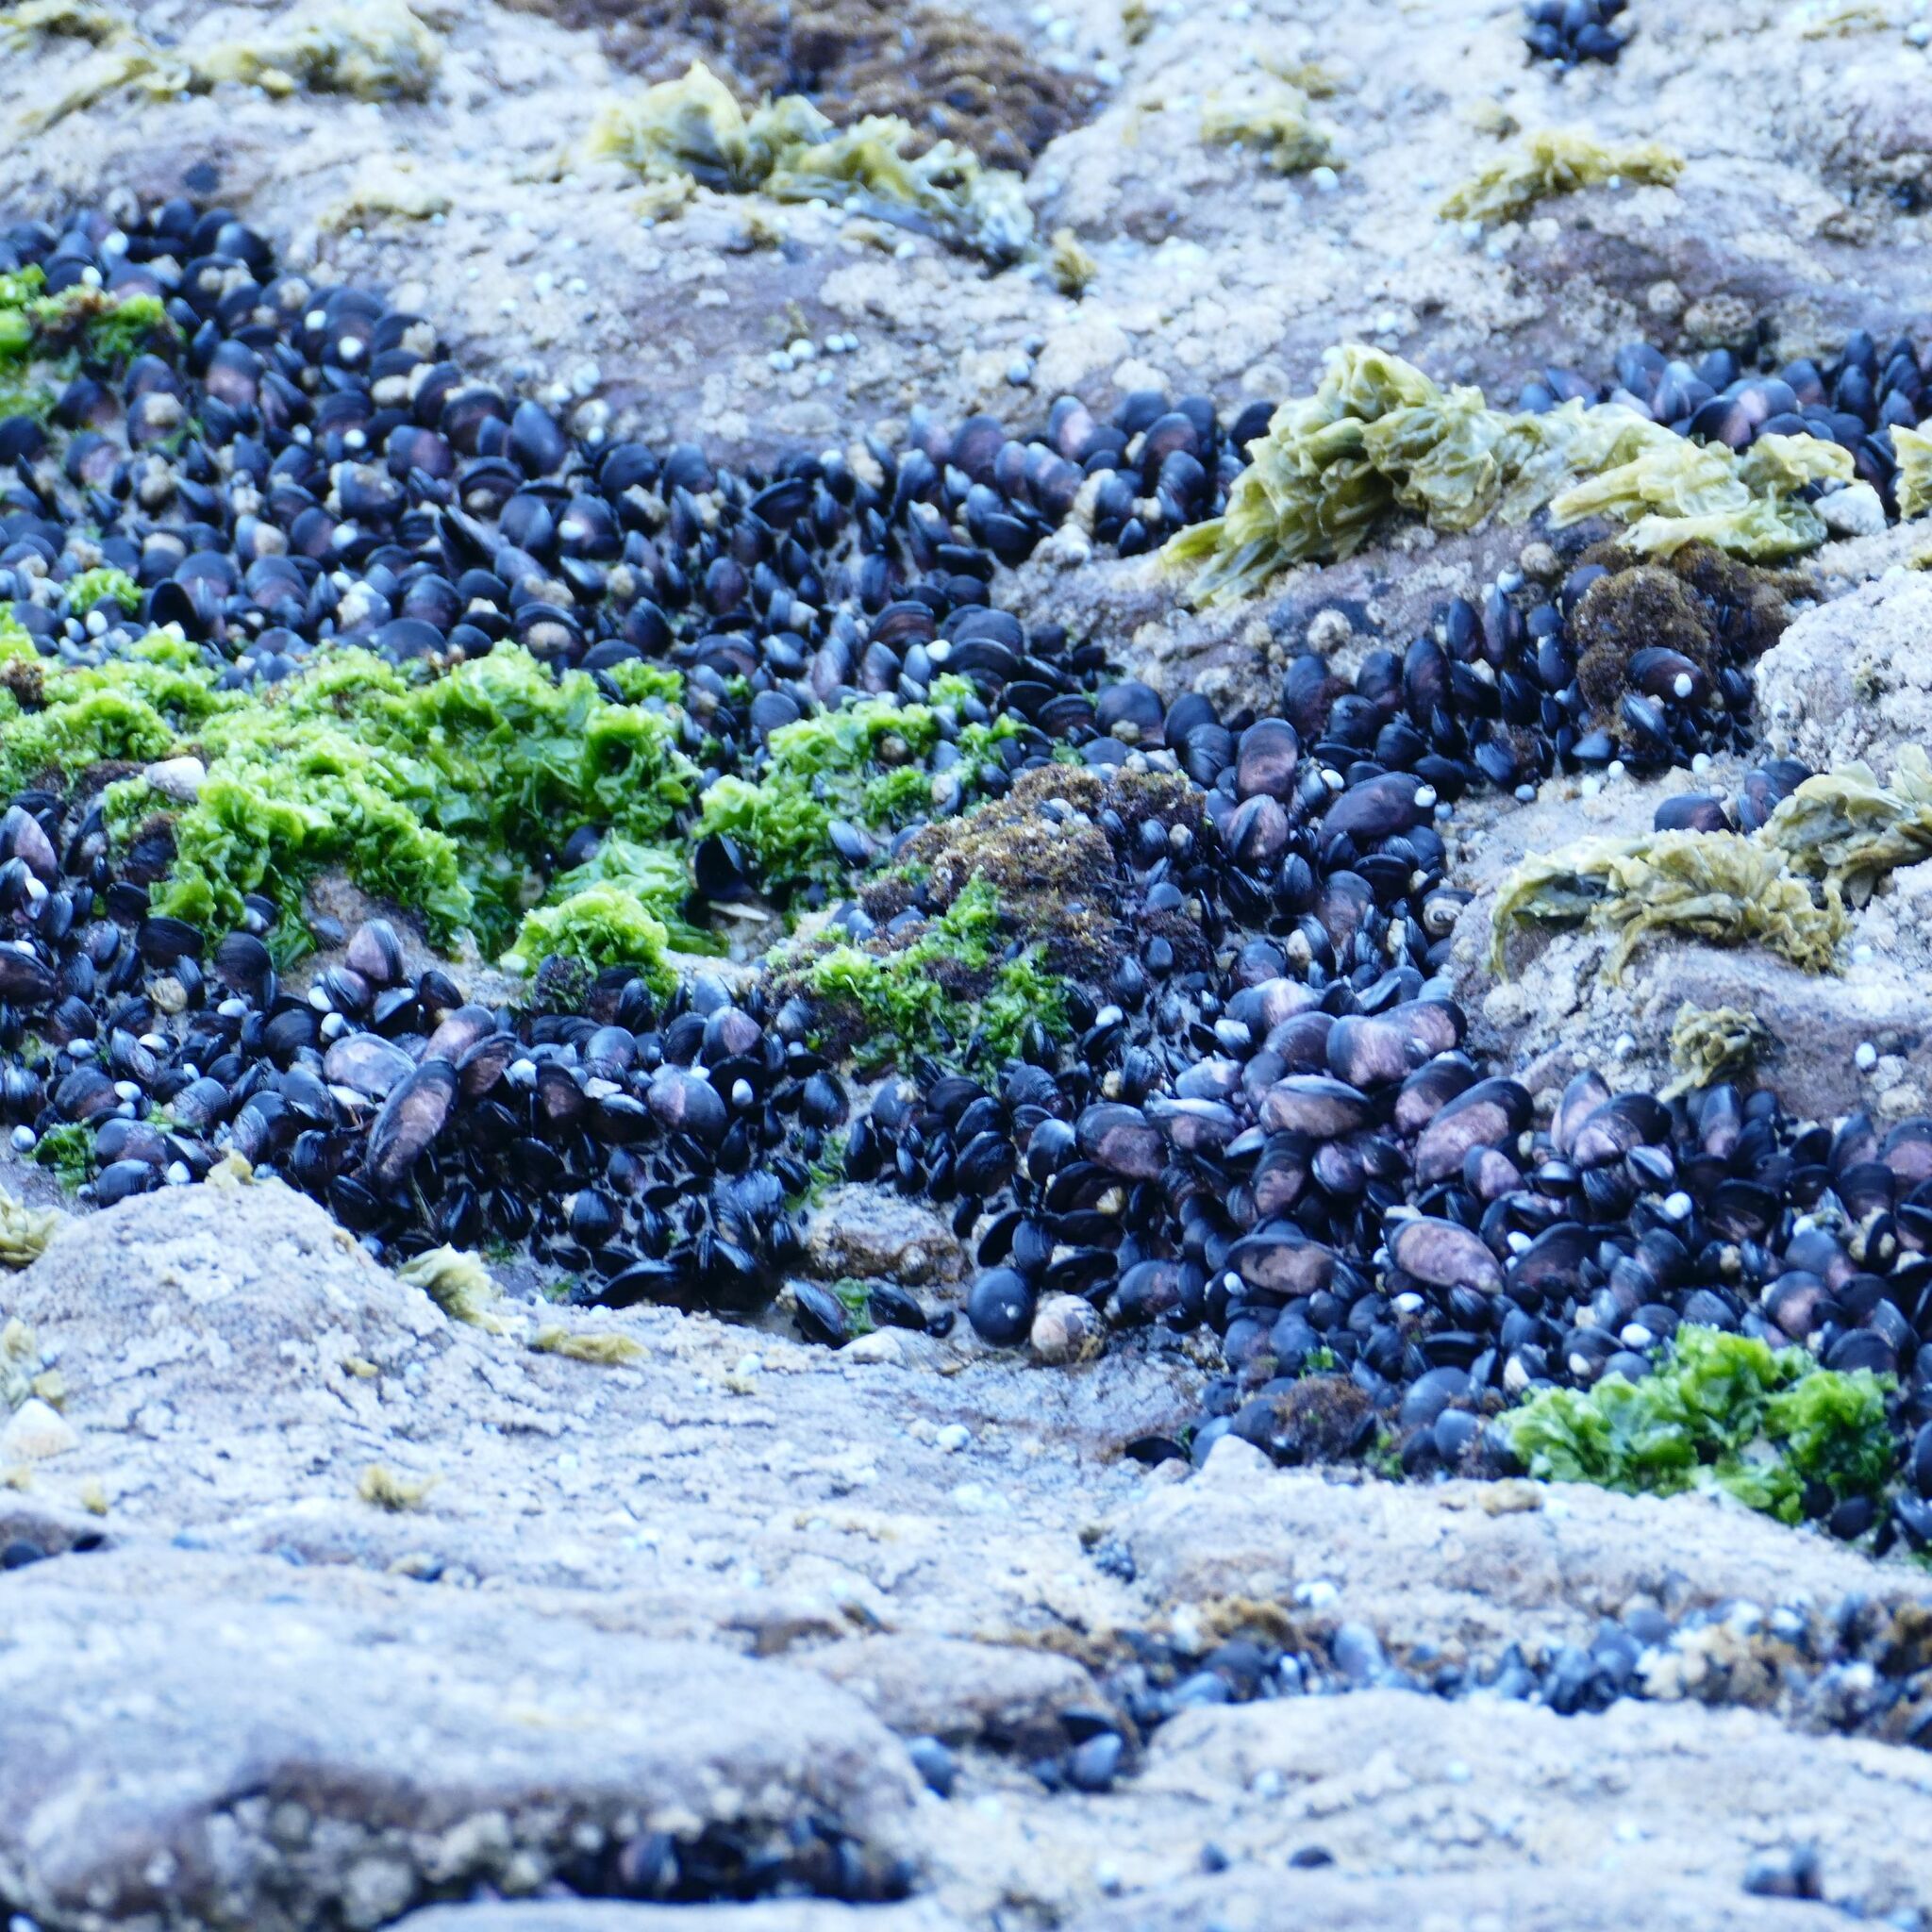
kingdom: Animalia
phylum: Mollusca
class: Bivalvia
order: Mytilida
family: Mytilidae
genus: Brachidontes
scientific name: Brachidontes rostratus
